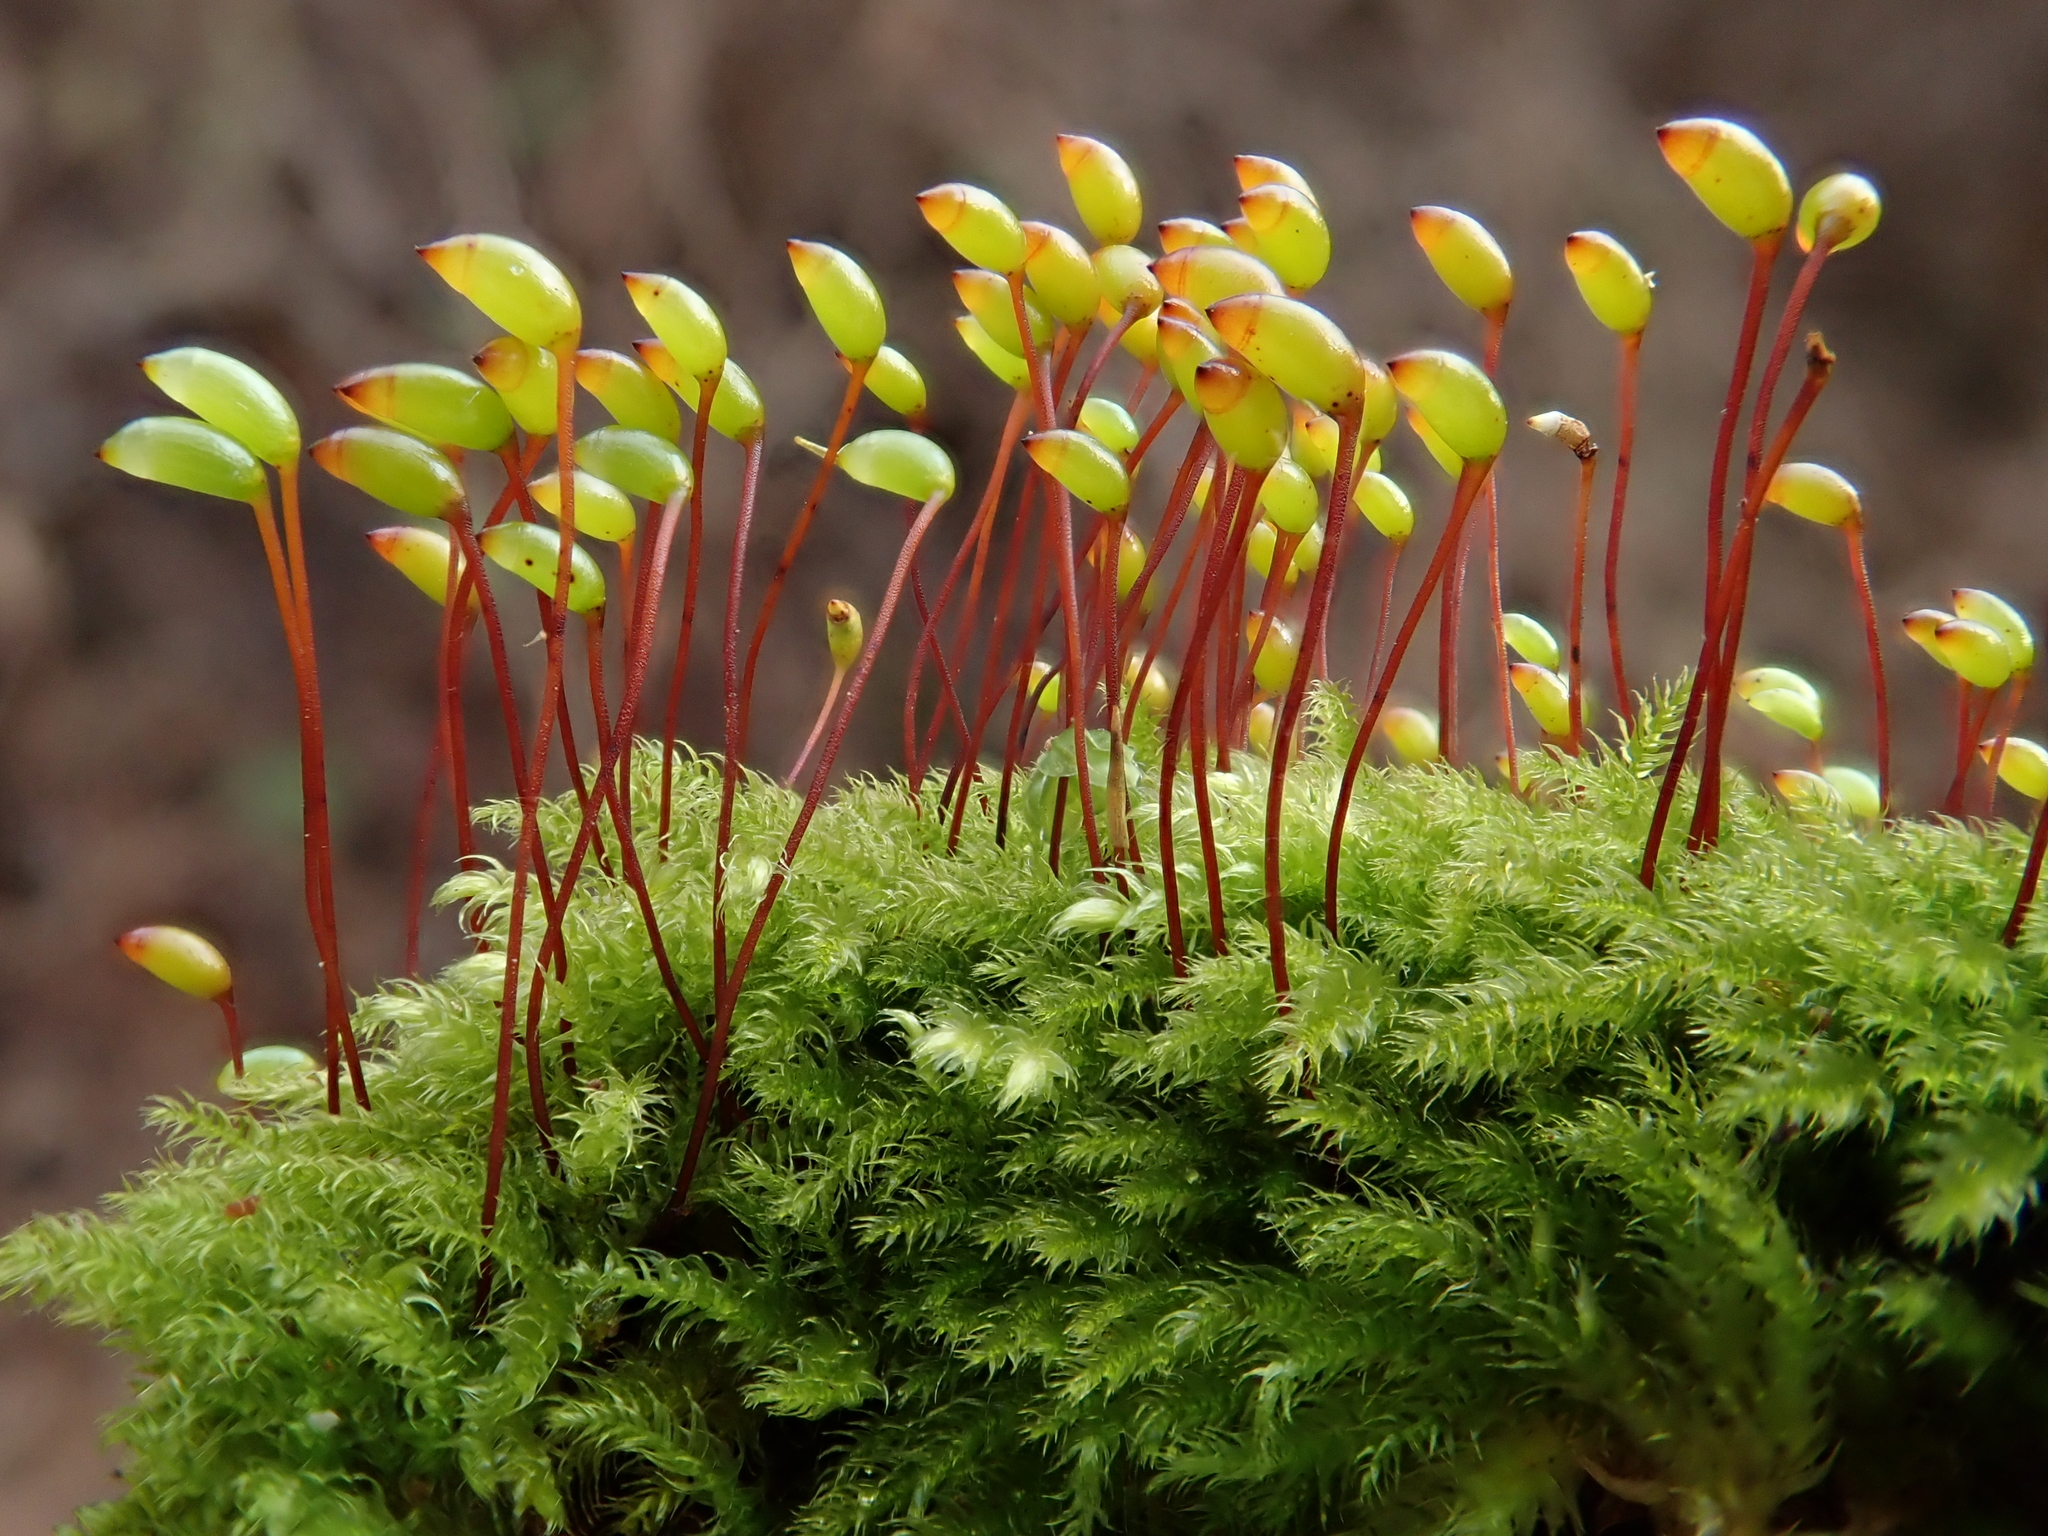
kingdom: Plantae
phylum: Bryophyta
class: Bryopsida
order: Hypnales
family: Brachytheciaceae
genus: Brachytheciastrum
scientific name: Brachytheciastrum velutinum
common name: Velvet feather-moss
